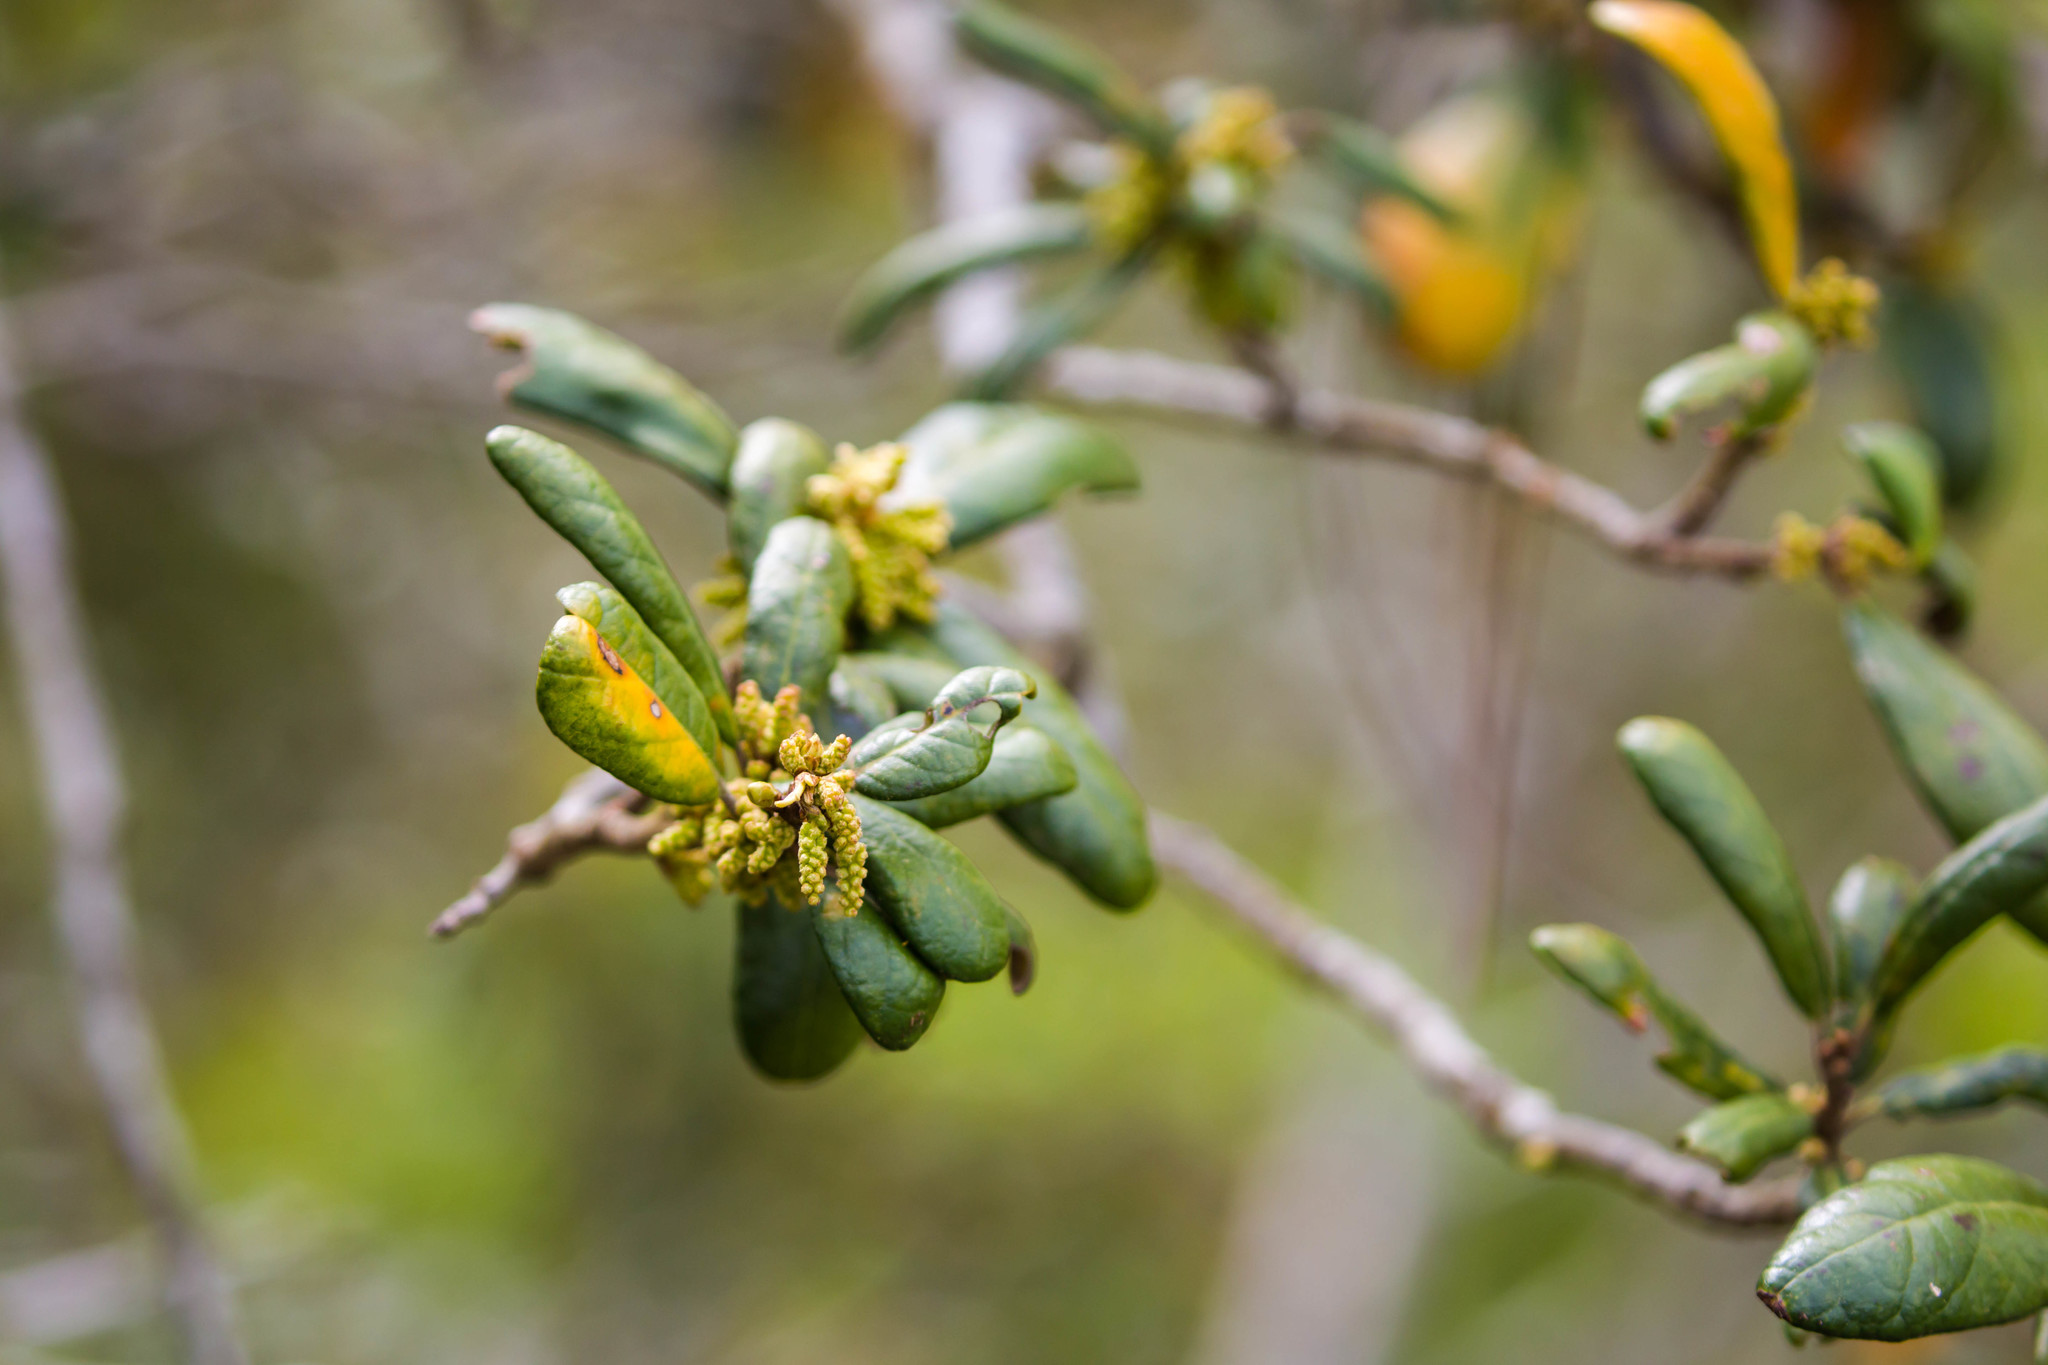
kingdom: Plantae
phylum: Tracheophyta
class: Magnoliopsida
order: Fagales
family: Fagaceae
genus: Quercus
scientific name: Quercus geminata
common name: Sand live oak
